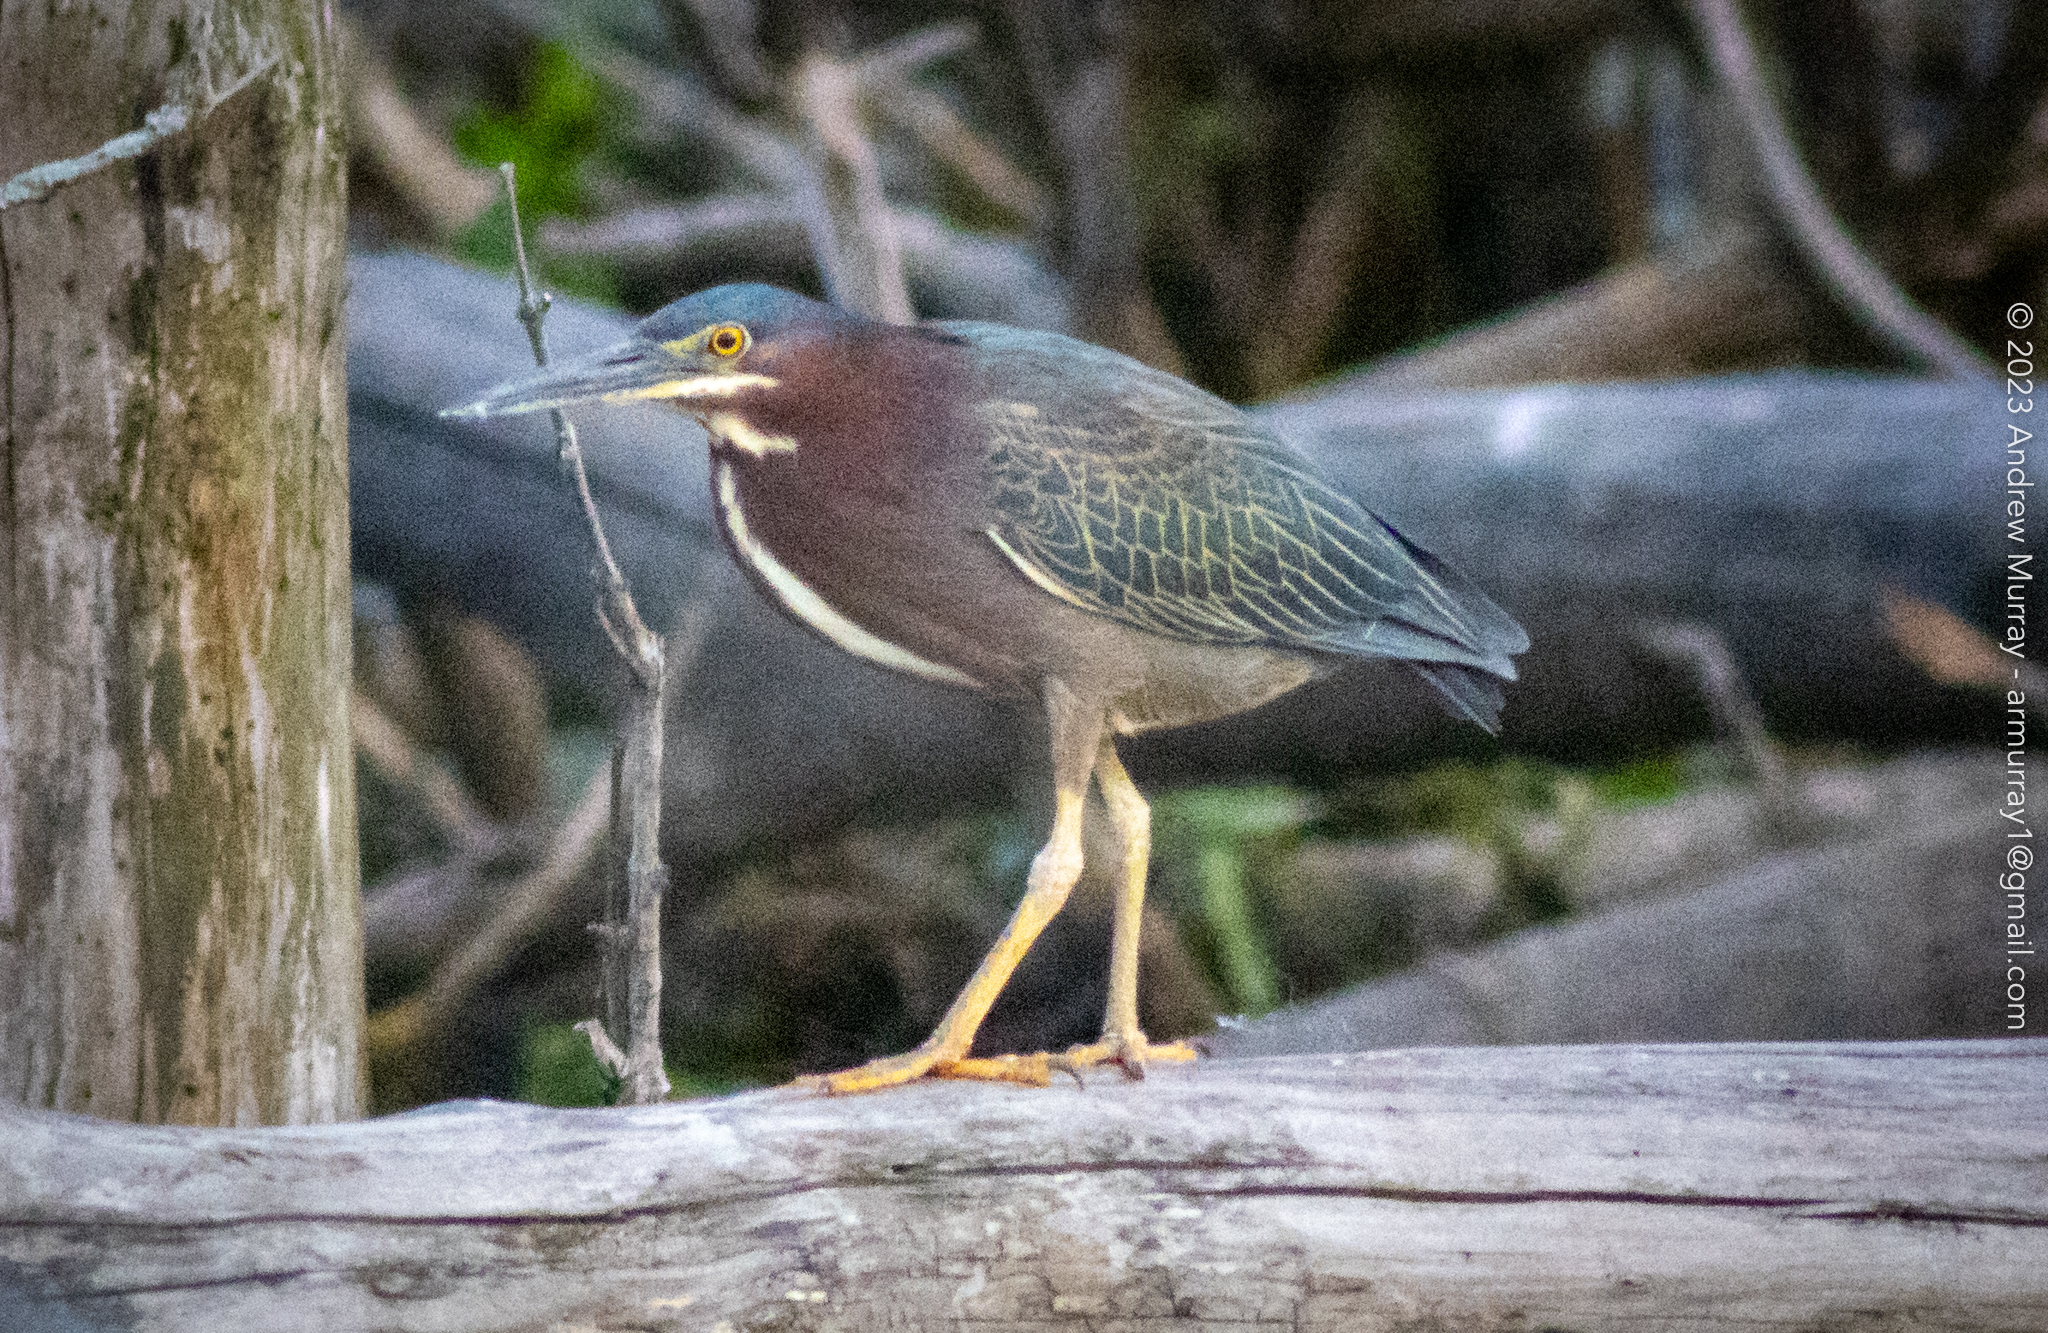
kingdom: Animalia
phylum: Chordata
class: Aves
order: Pelecaniformes
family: Ardeidae
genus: Butorides
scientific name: Butorides virescens
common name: Green heron
